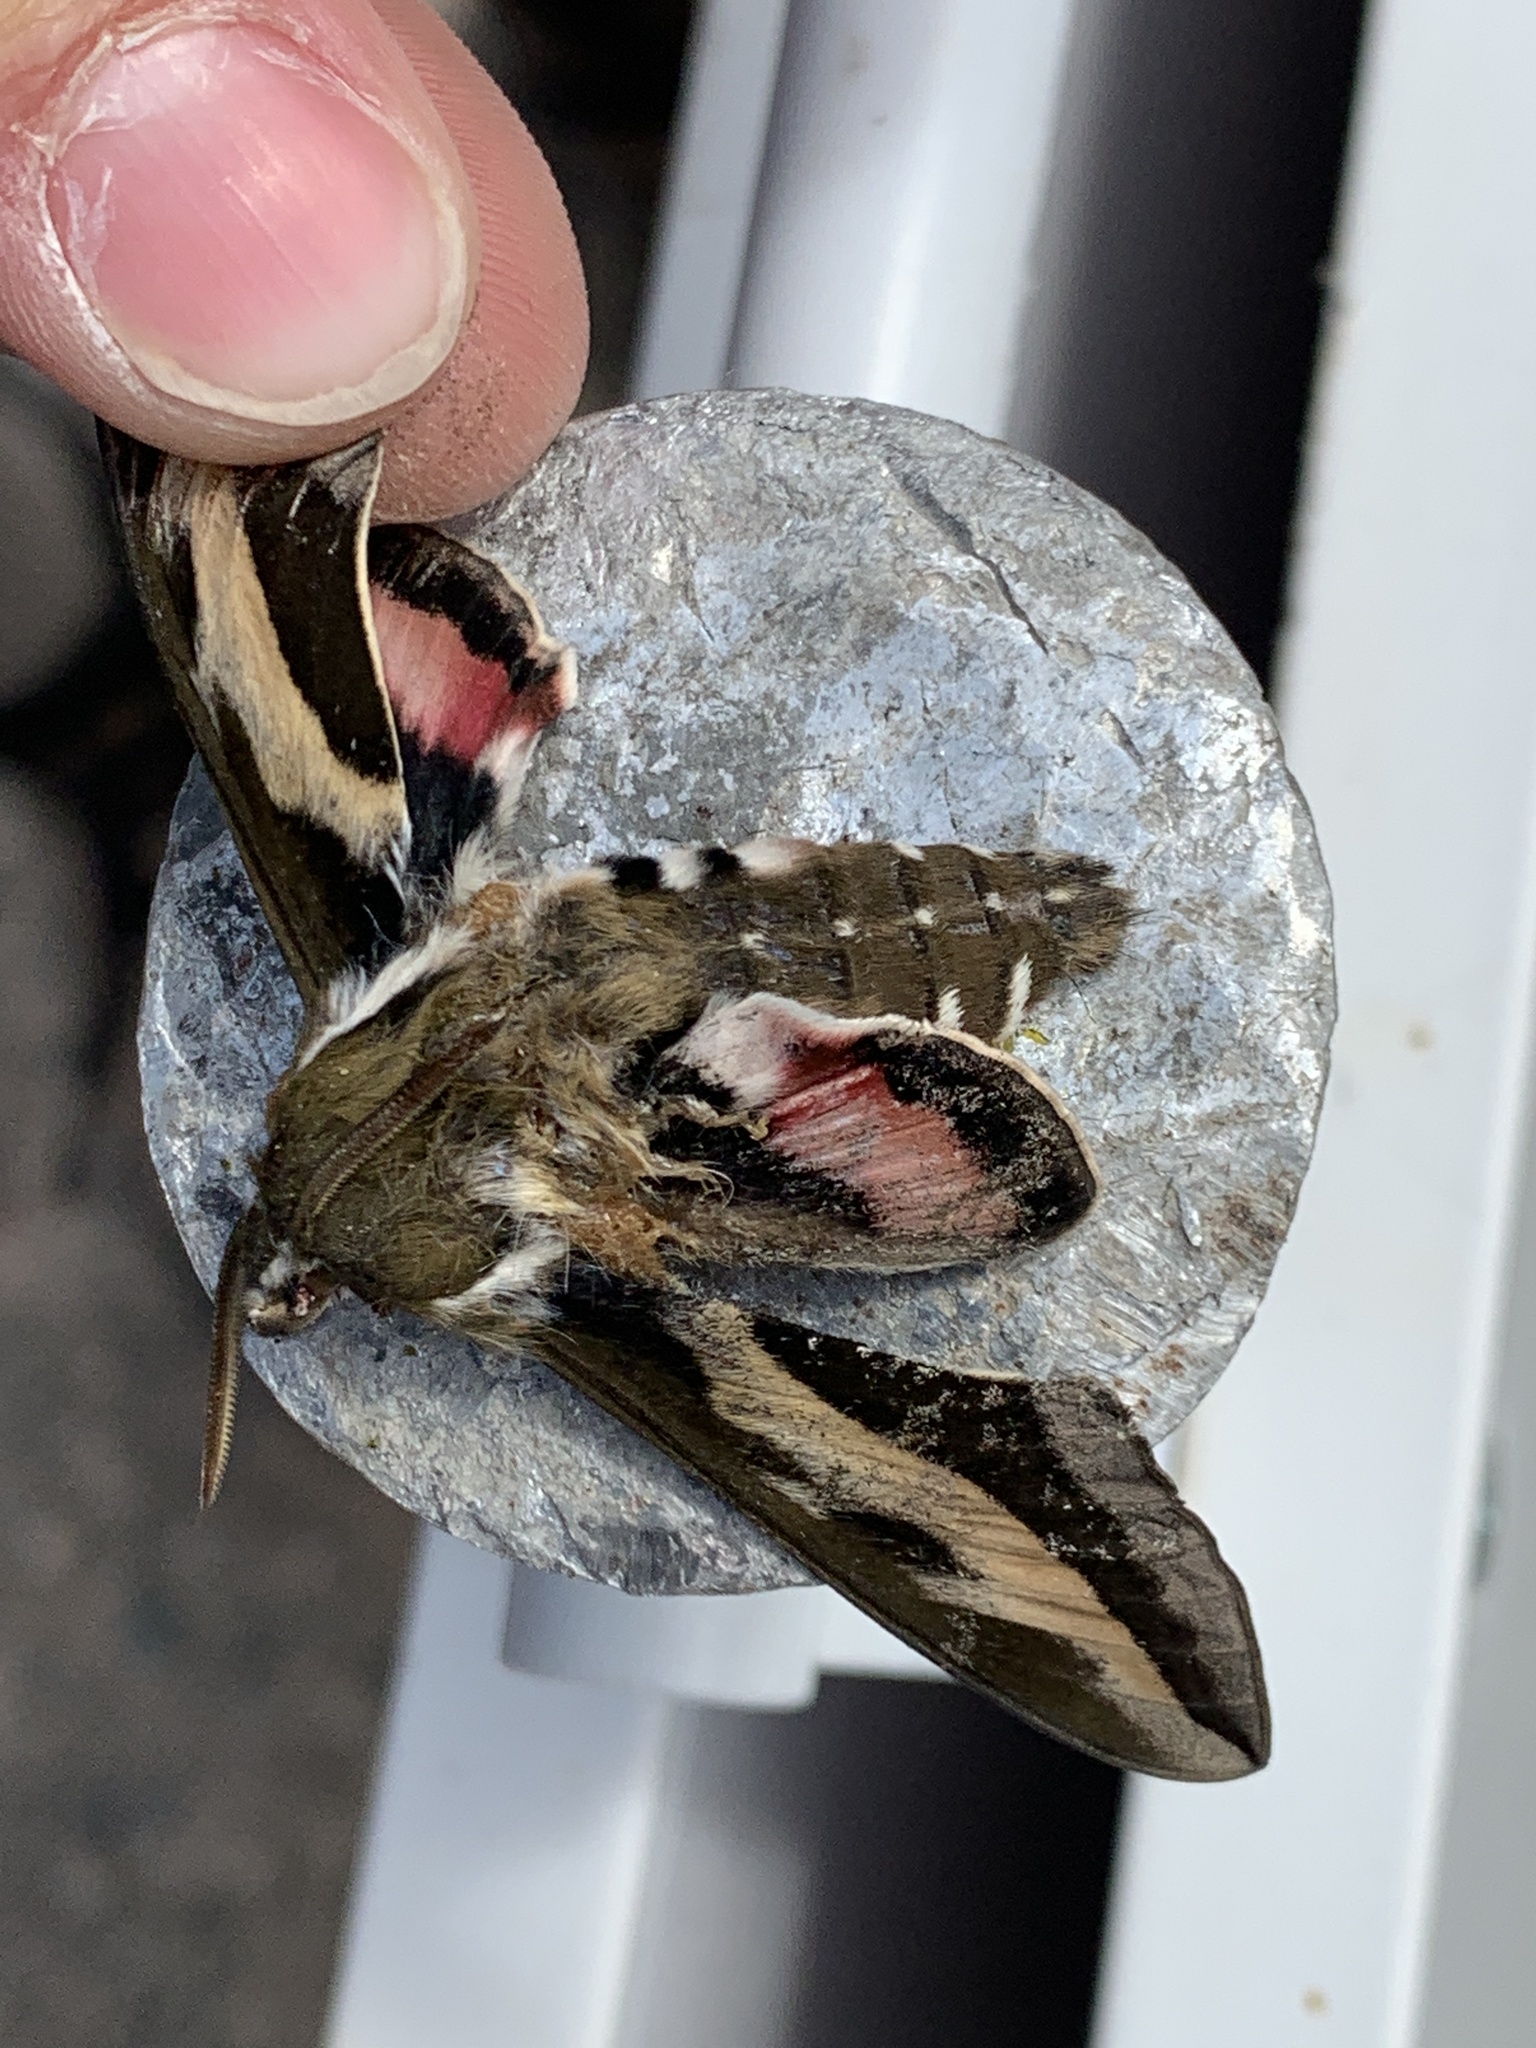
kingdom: Animalia
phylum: Arthropoda
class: Insecta
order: Lepidoptera
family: Sphingidae
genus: Hyles
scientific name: Hyles gallii
